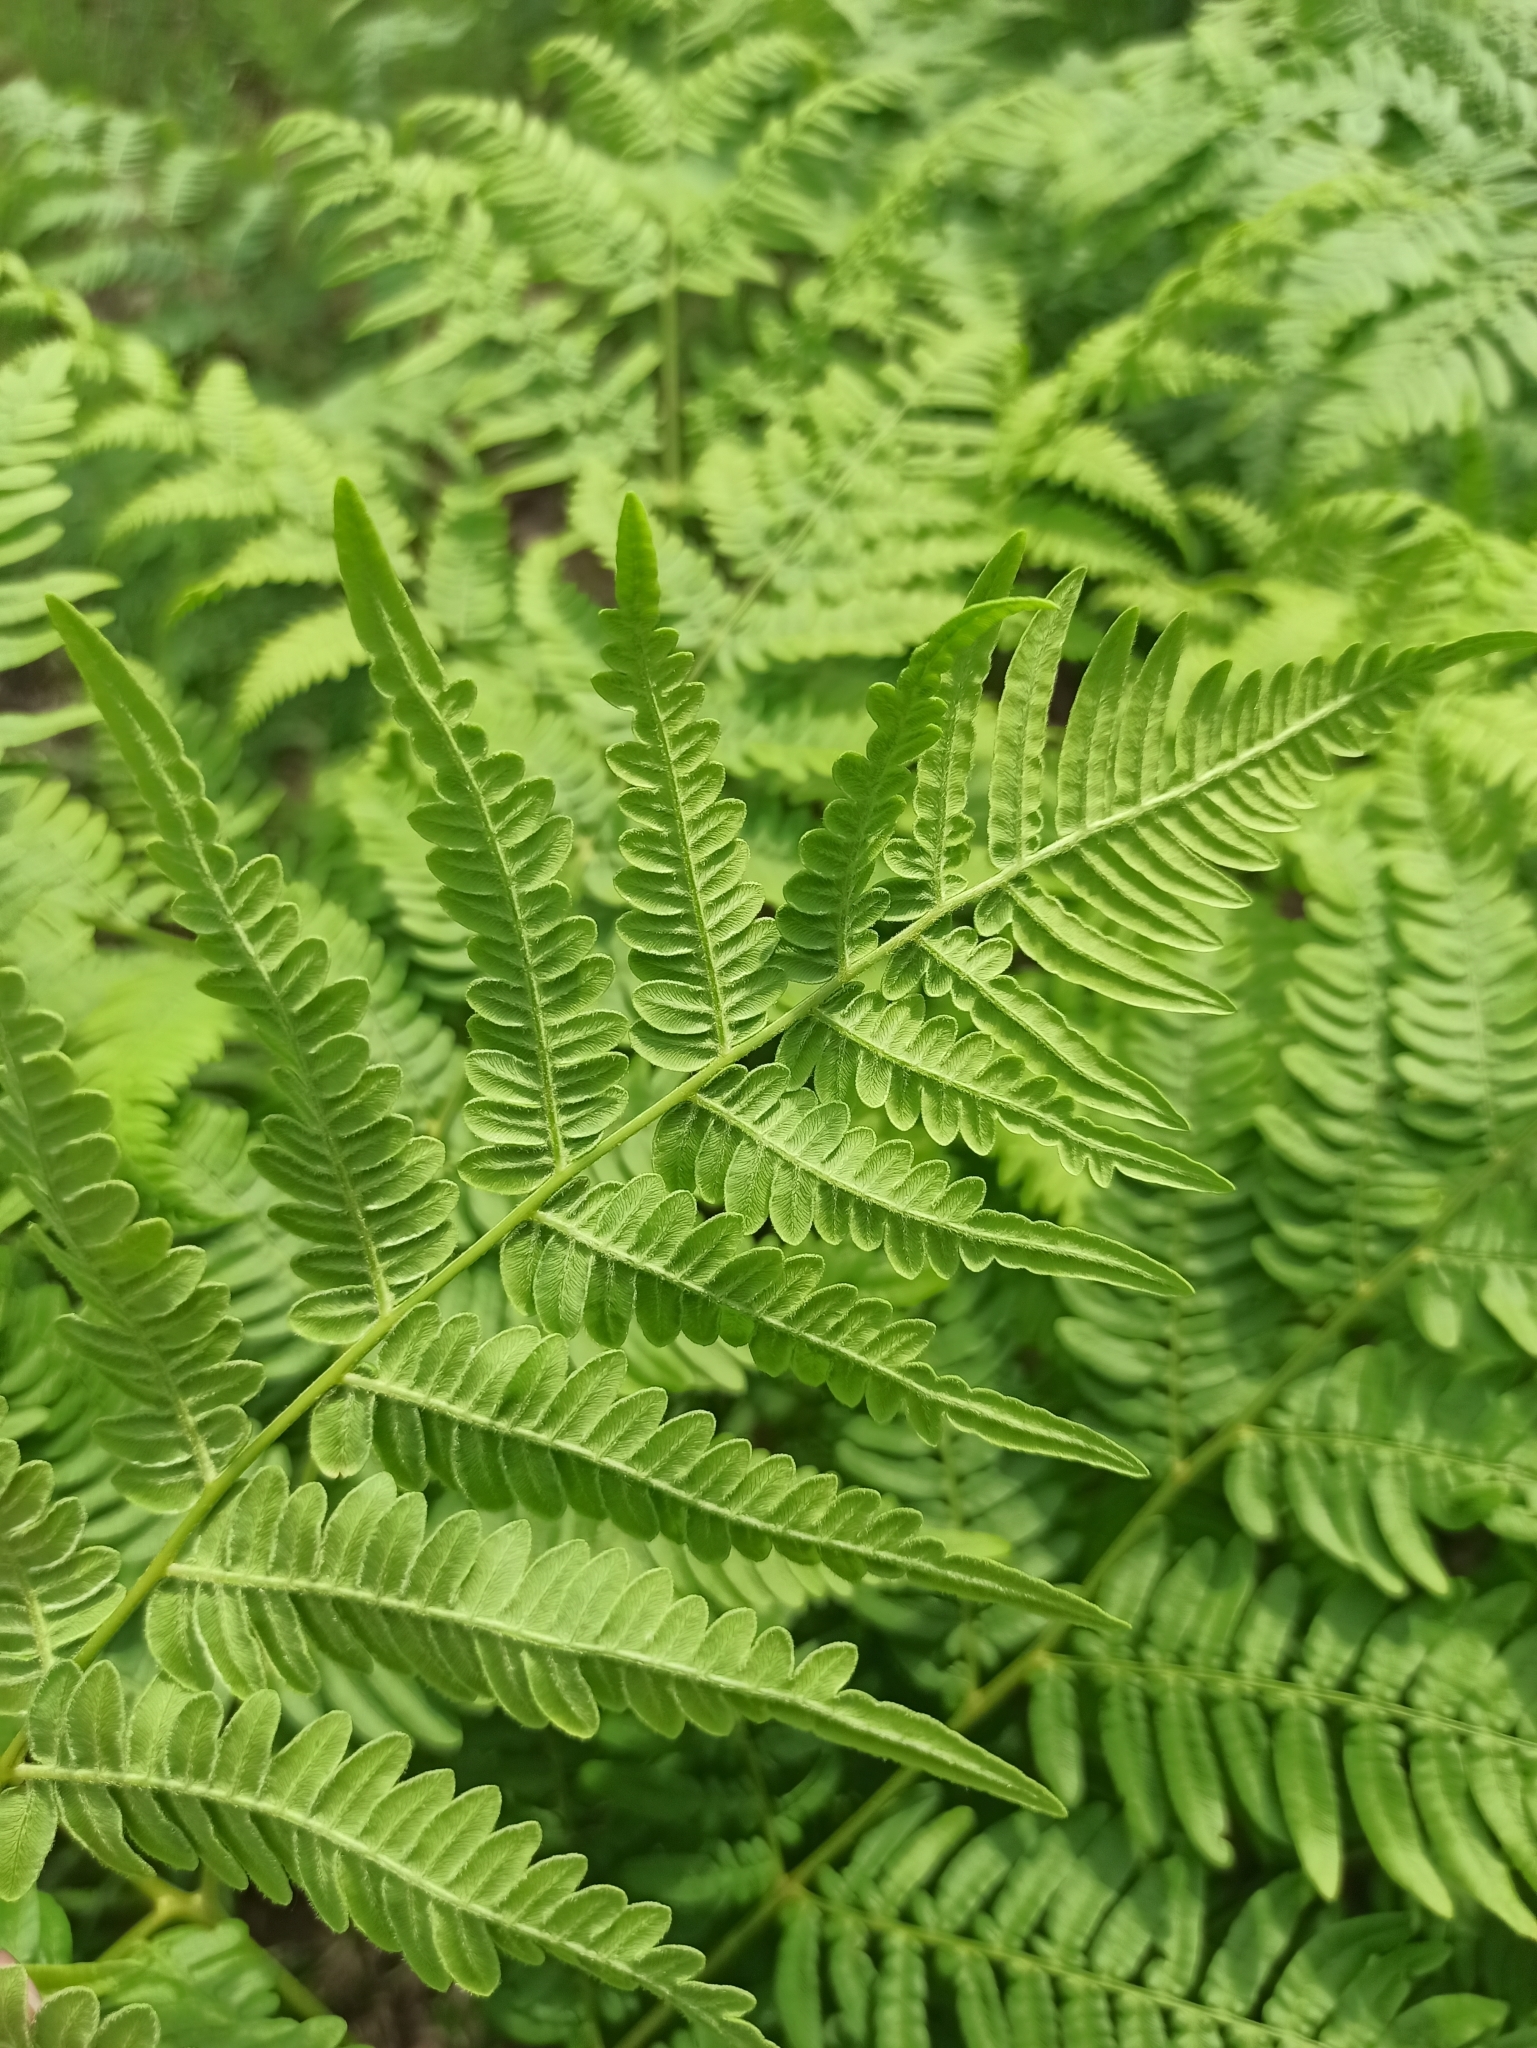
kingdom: Plantae
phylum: Tracheophyta
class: Polypodiopsida
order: Polypodiales
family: Dennstaedtiaceae
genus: Pteridium
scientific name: Pteridium aquilinum
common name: Bracken
